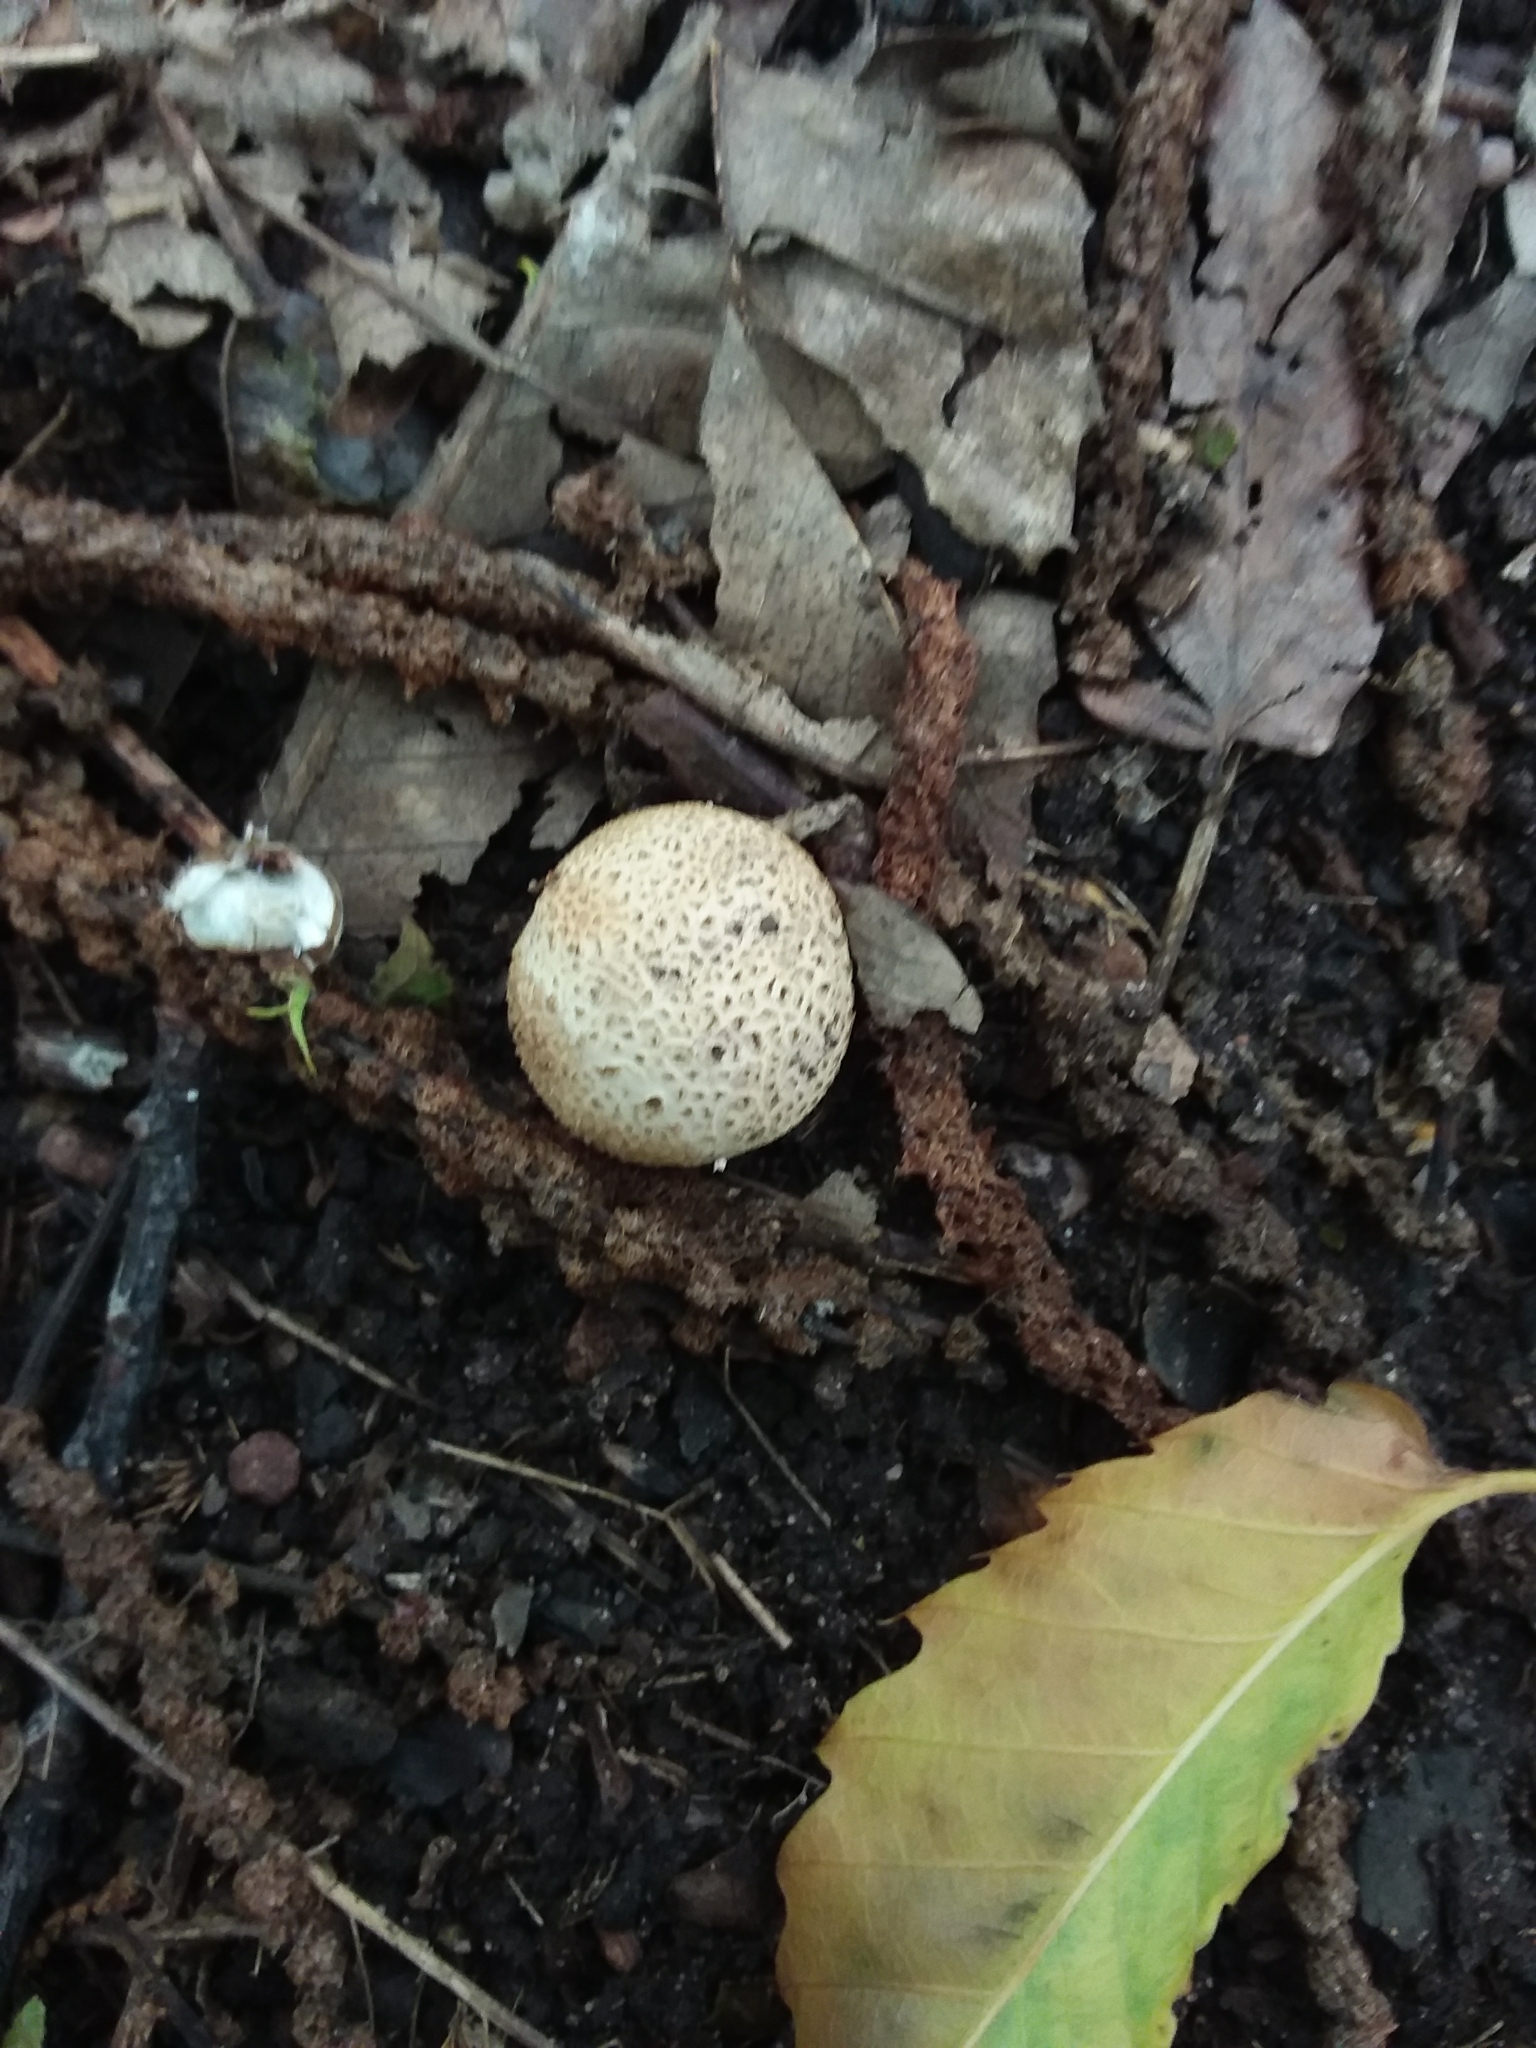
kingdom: Fungi
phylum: Basidiomycota
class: Agaricomycetes
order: Boletales
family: Sclerodermataceae
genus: Scleroderma
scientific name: Scleroderma citrinum
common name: Common earthball
